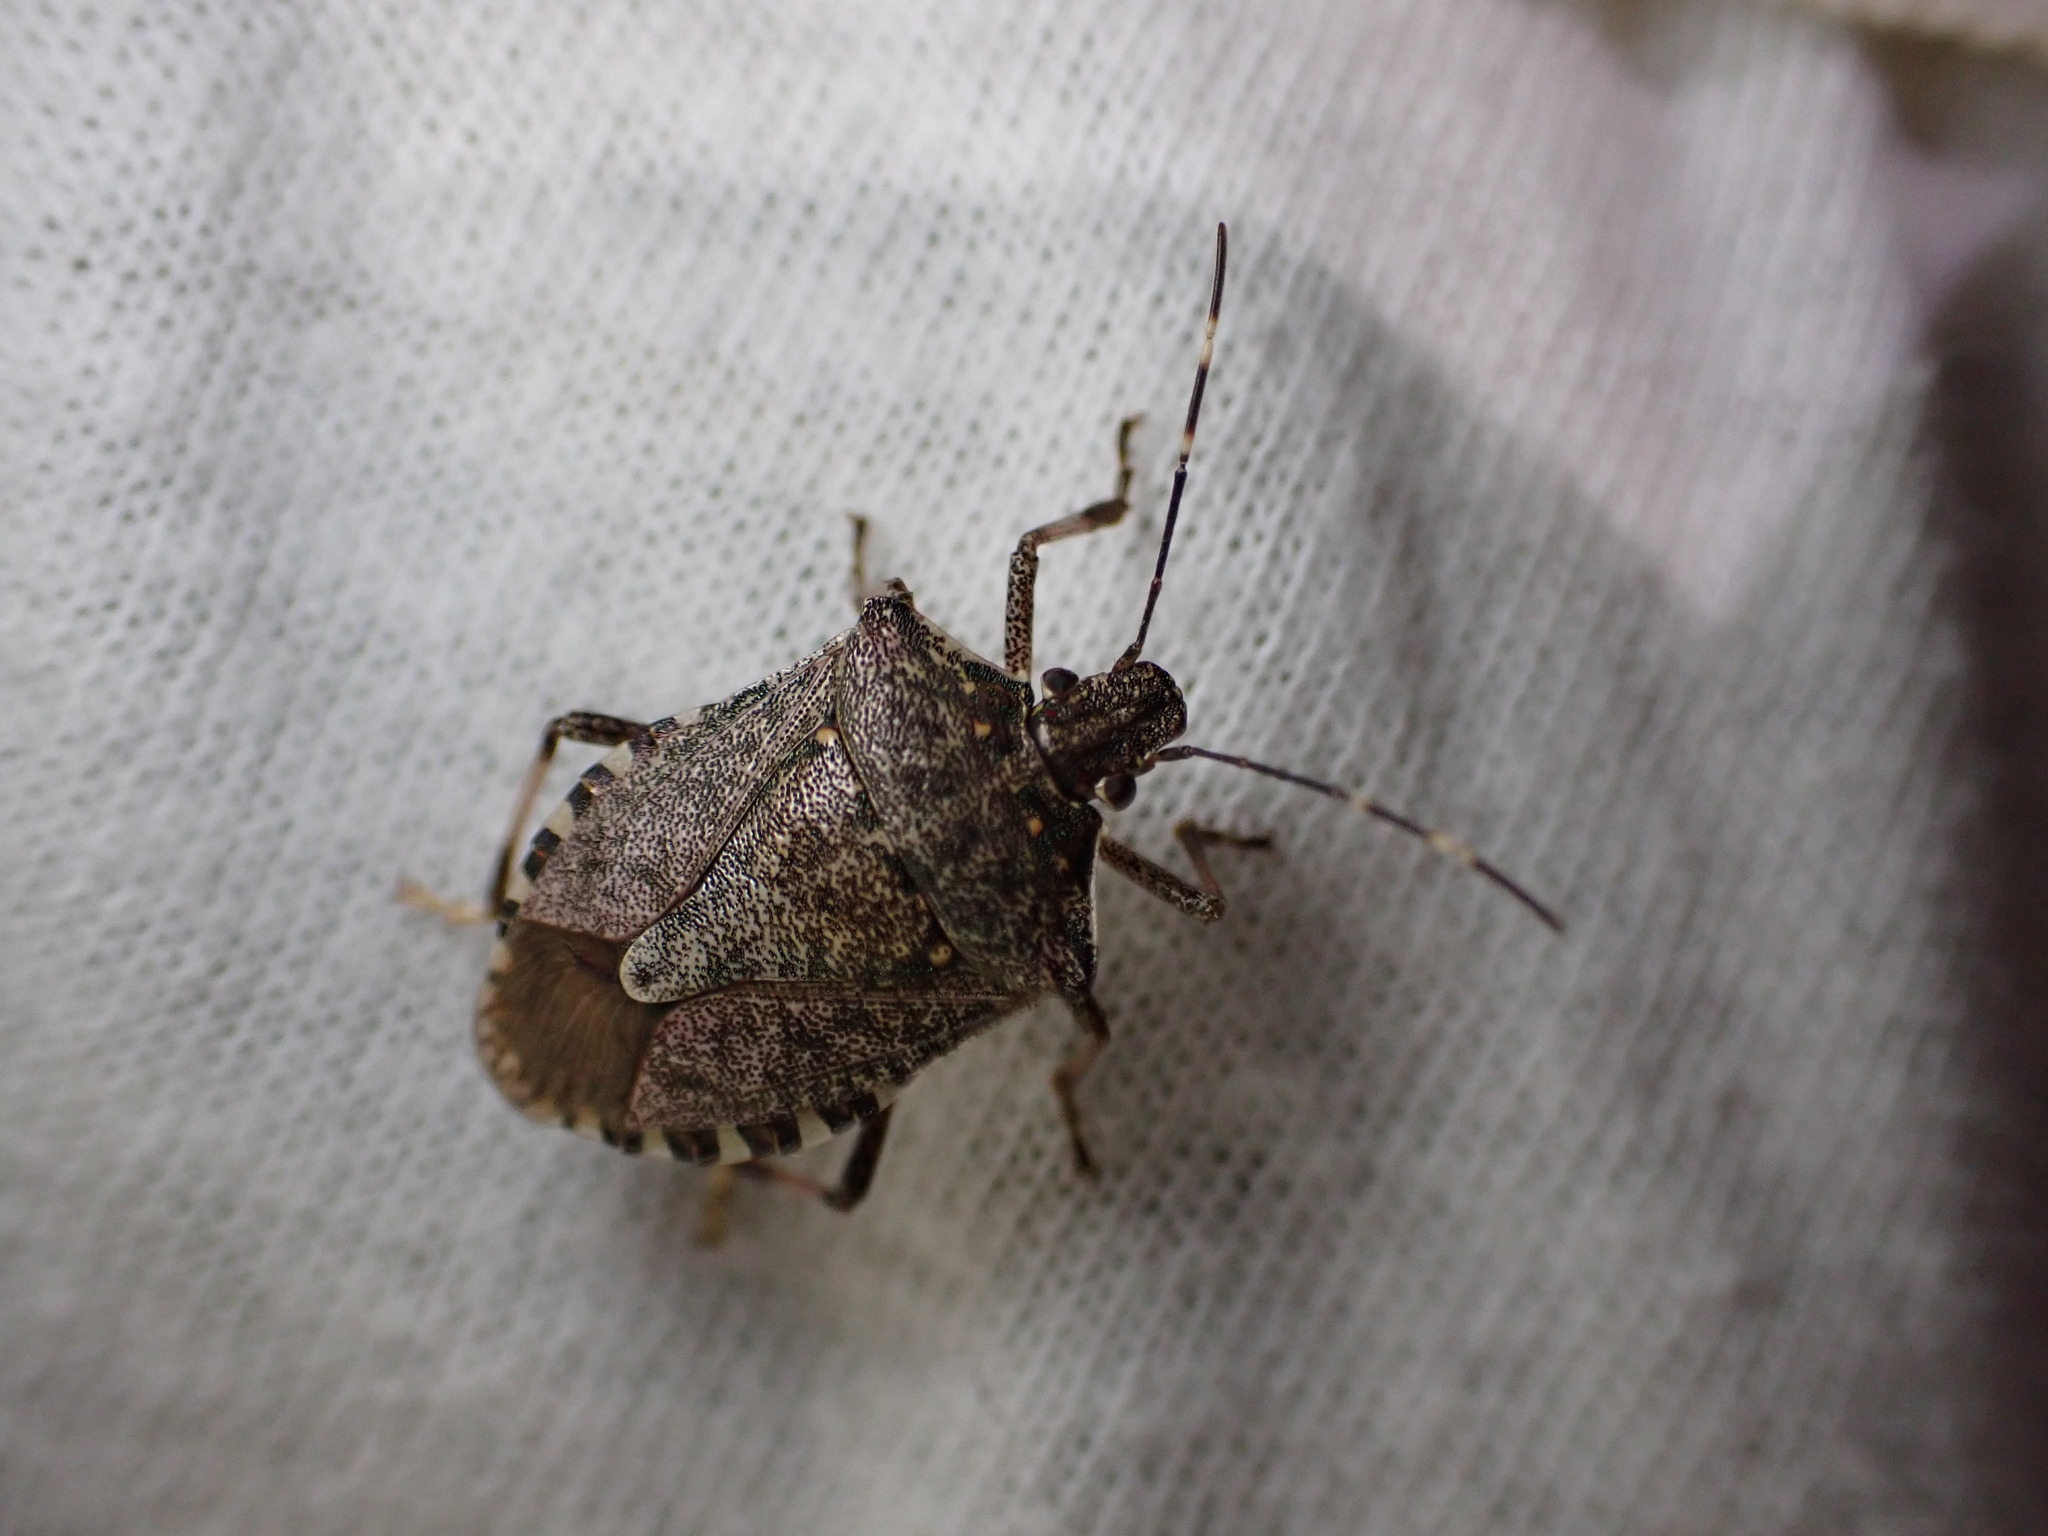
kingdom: Animalia
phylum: Arthropoda
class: Insecta
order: Hemiptera
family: Pentatomidae
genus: Halyomorpha
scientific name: Halyomorpha halys
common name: Brown marmorated stink bug
